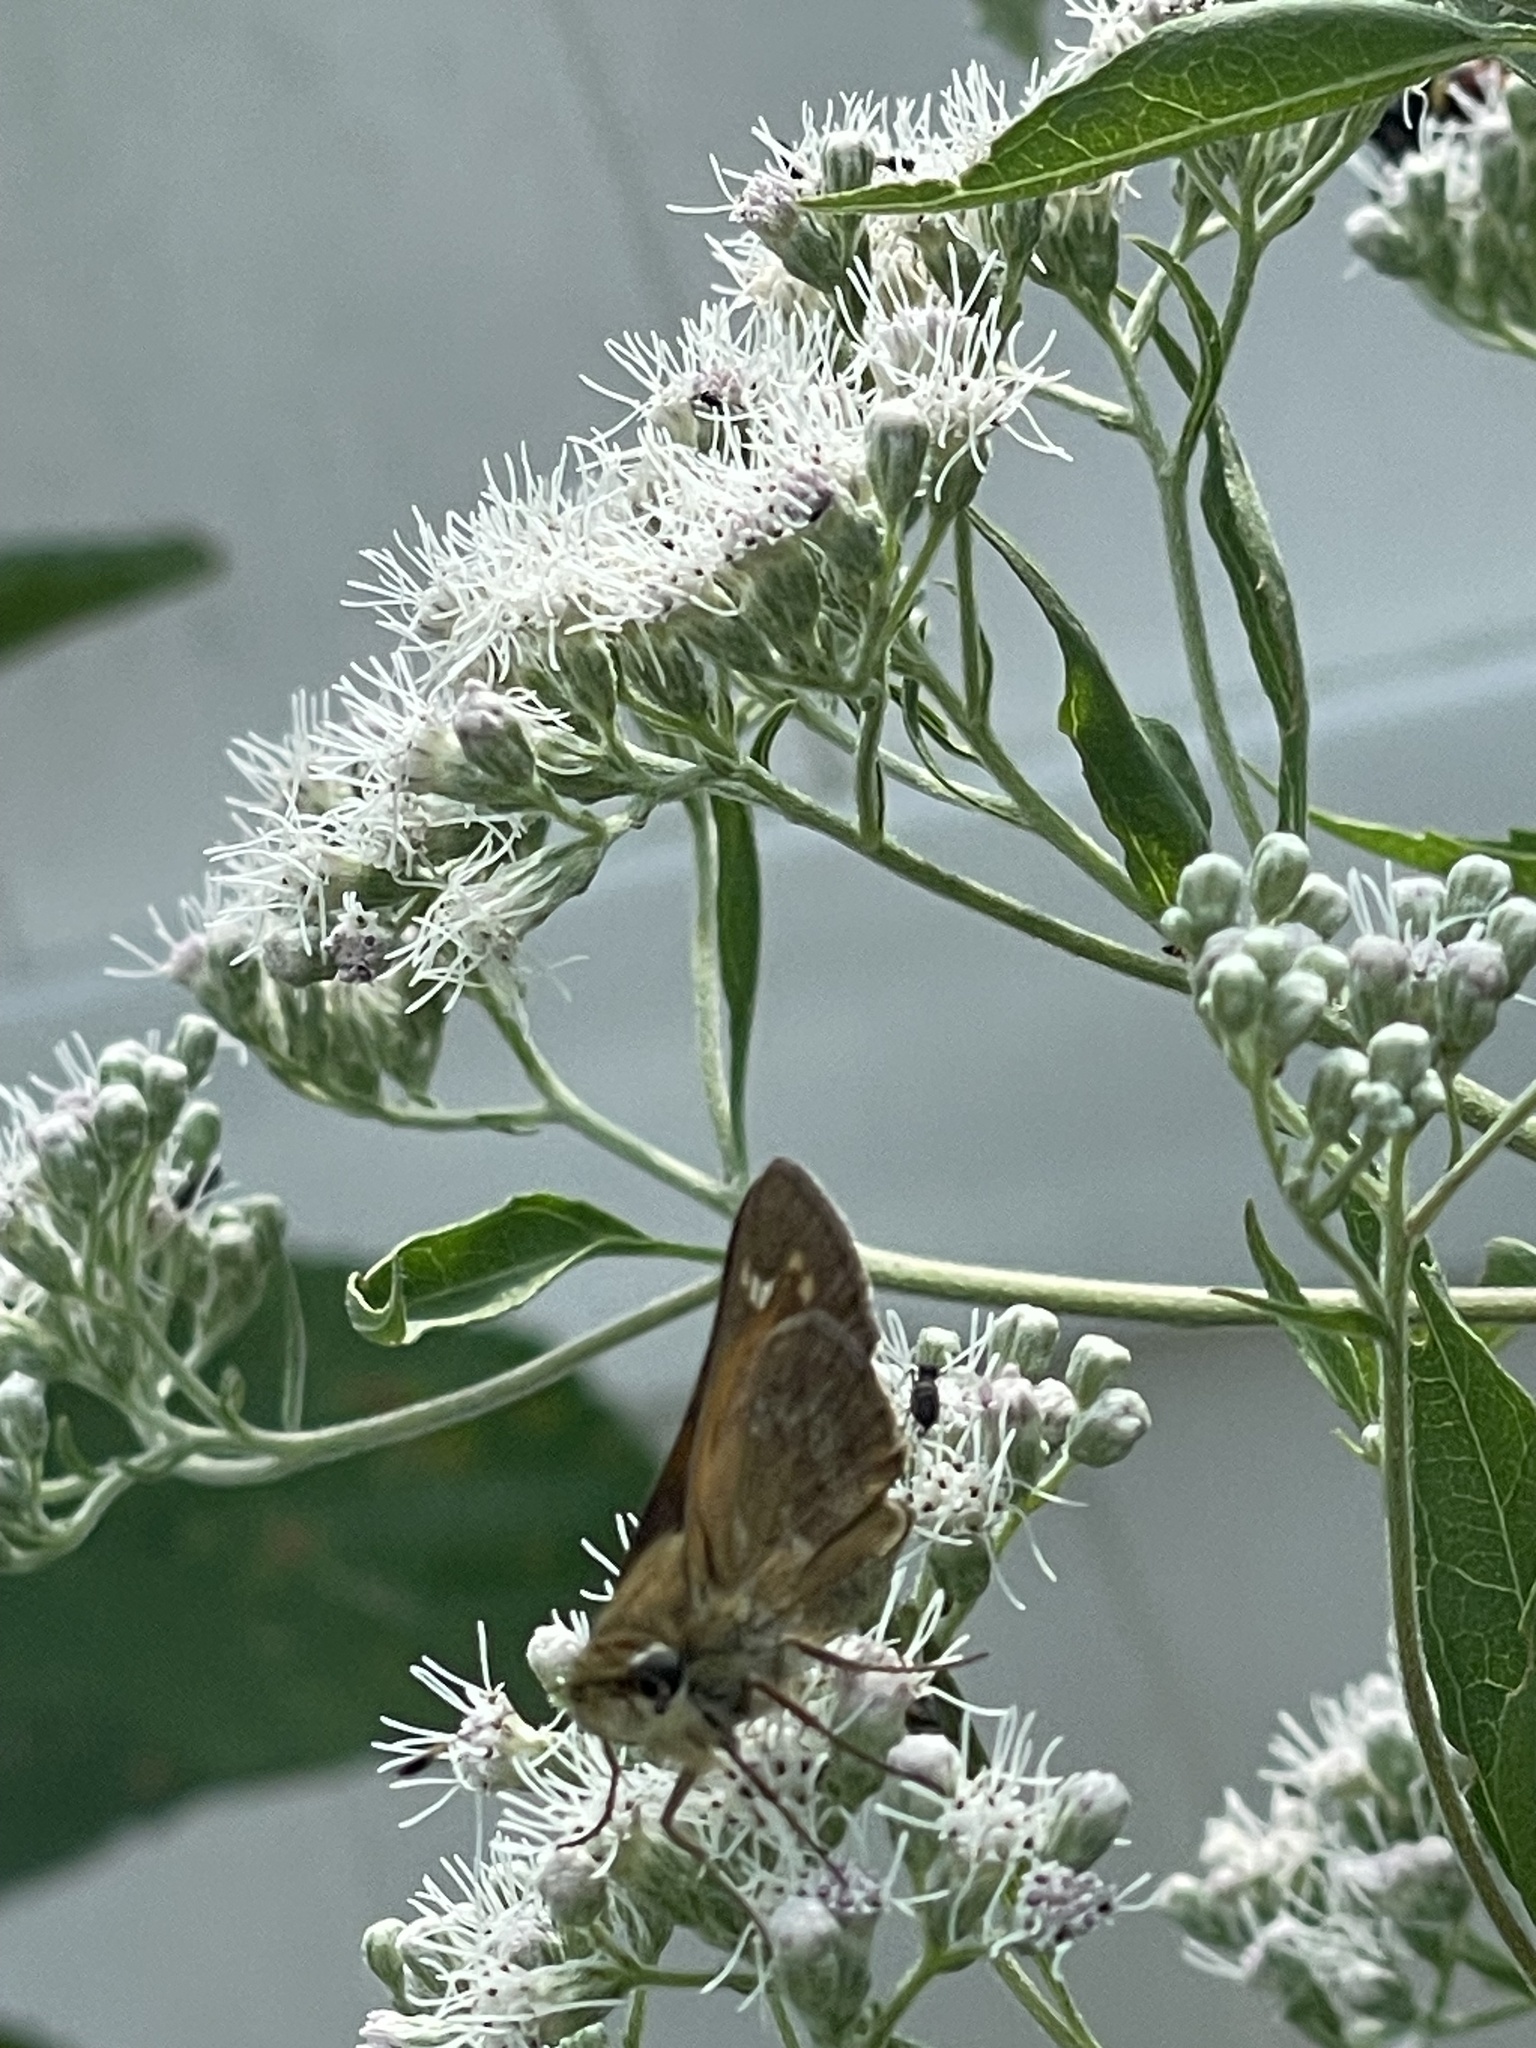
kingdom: Animalia
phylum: Arthropoda
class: Insecta
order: Lepidoptera
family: Hesperiidae
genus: Atalopedes
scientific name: Atalopedes
